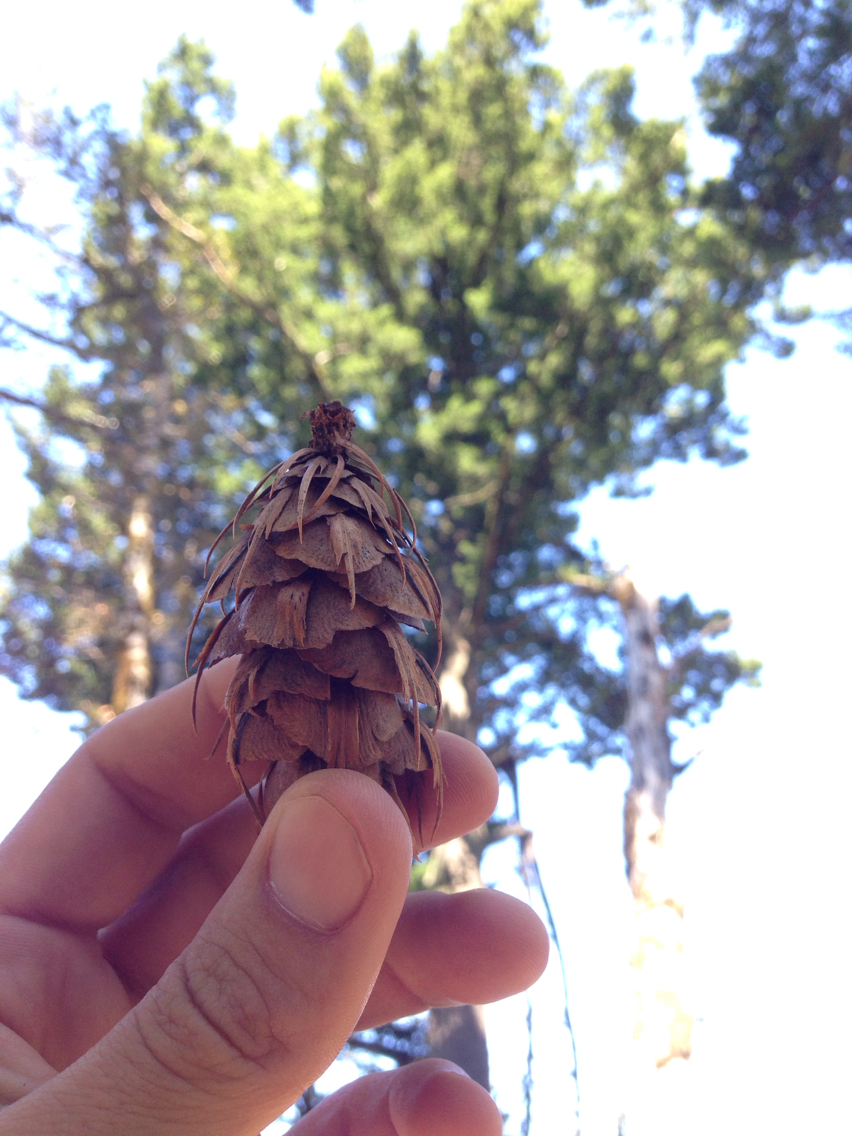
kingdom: Plantae
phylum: Tracheophyta
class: Pinopsida
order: Pinales
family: Pinaceae
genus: Pseudotsuga
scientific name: Pseudotsuga menziesii
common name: Douglas fir
